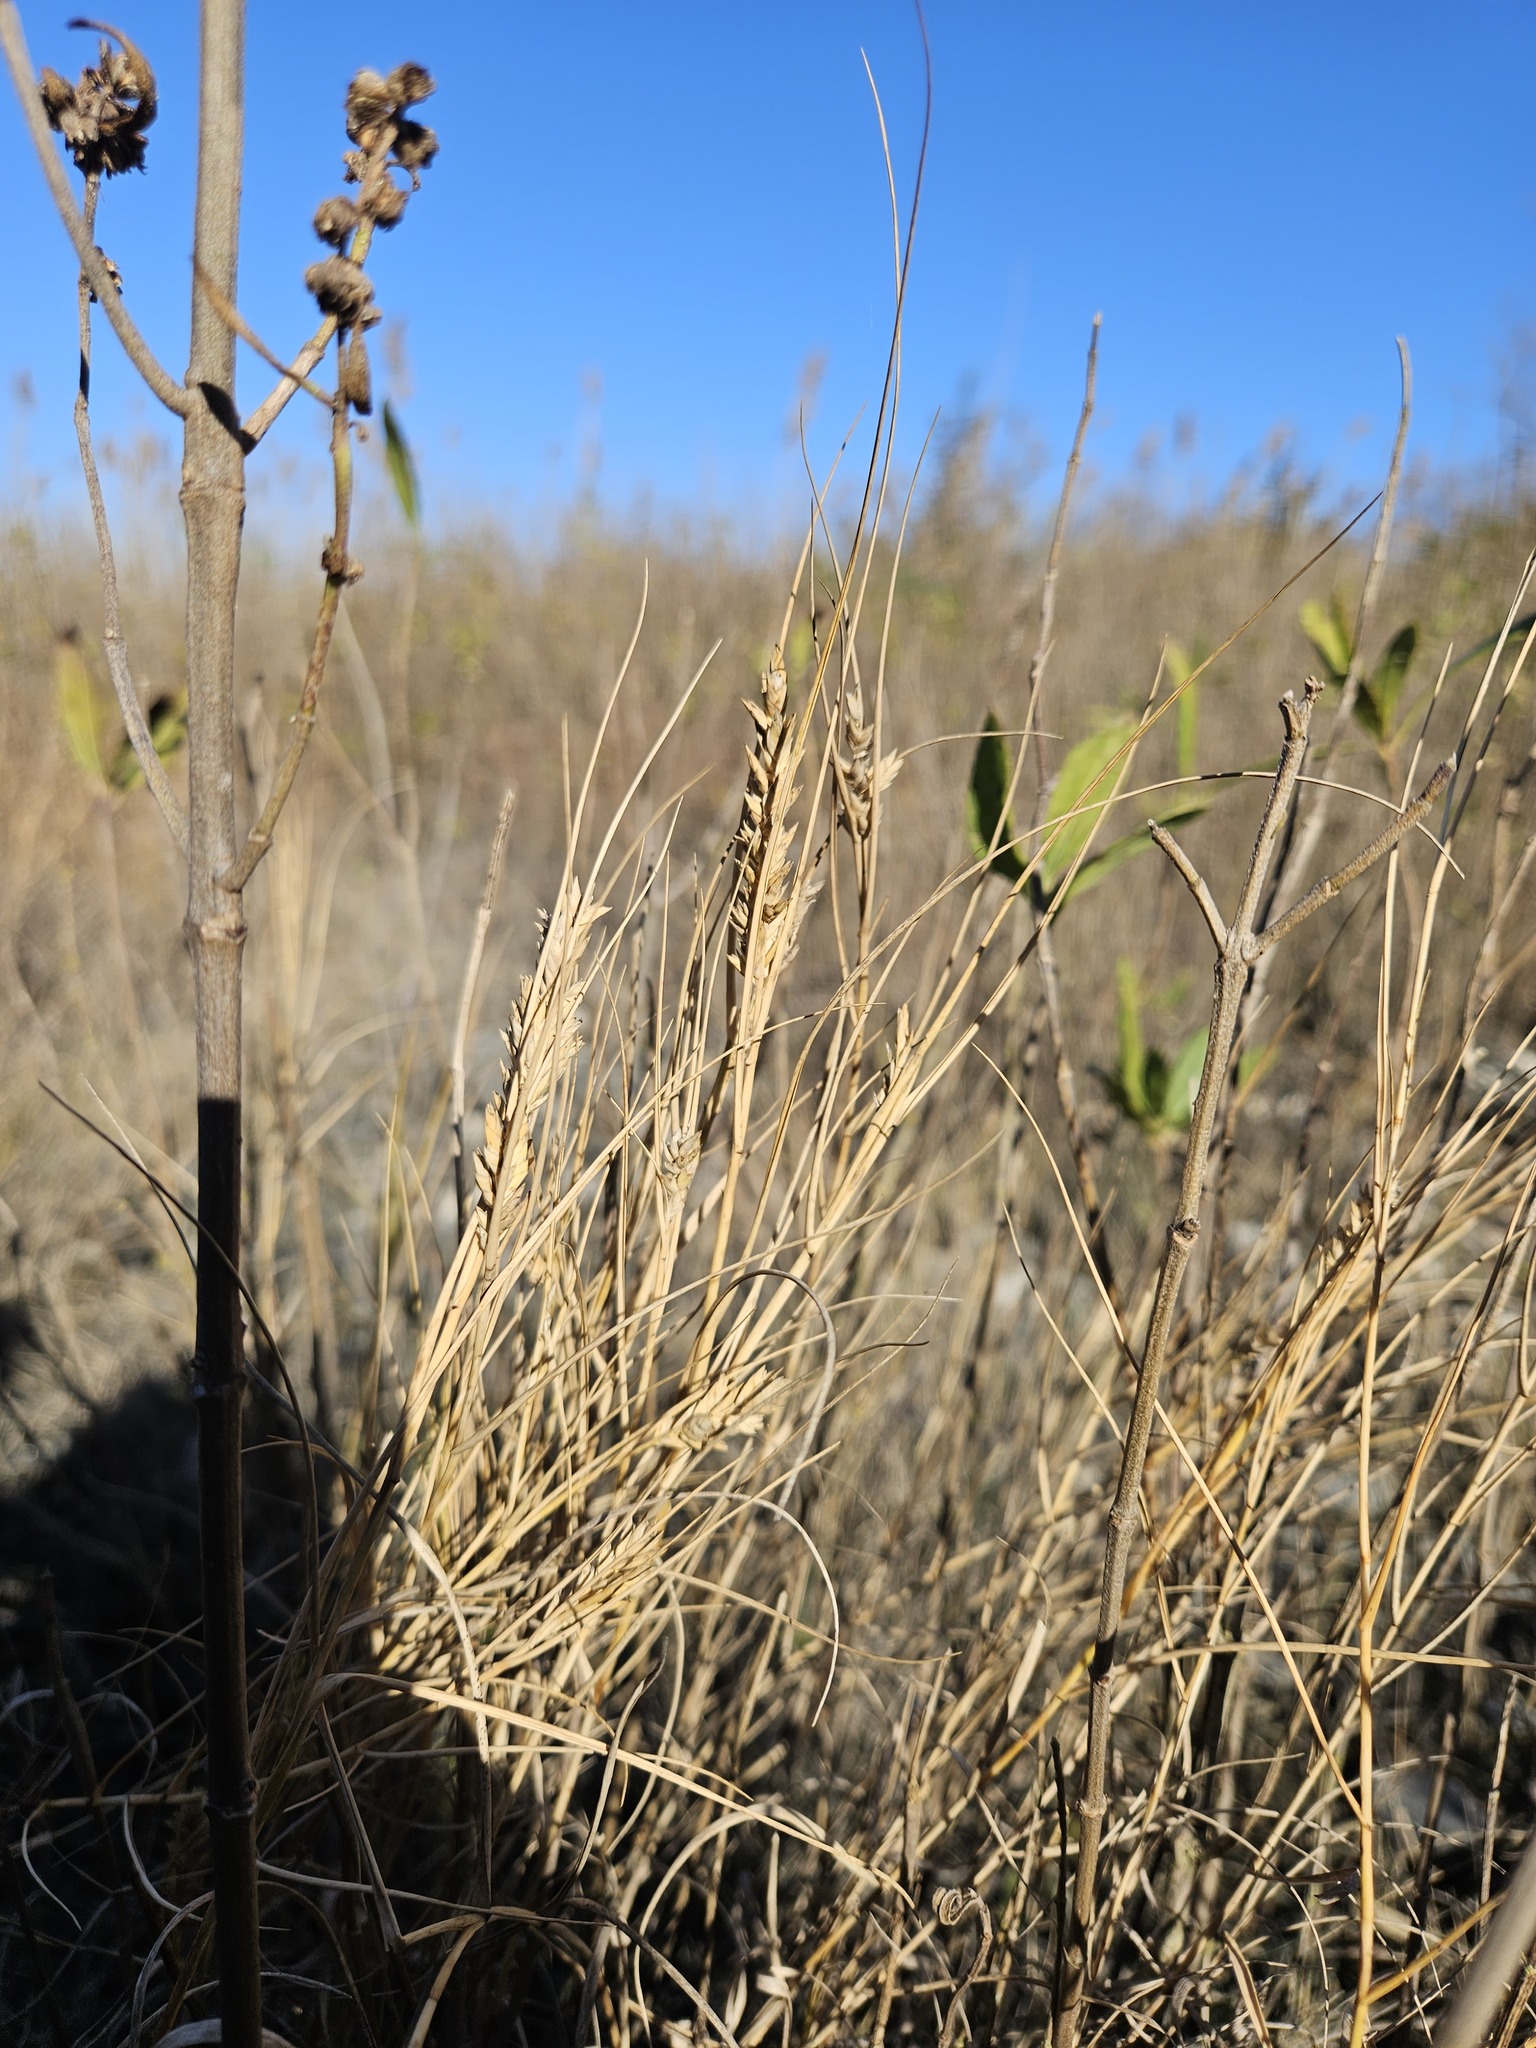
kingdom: Plantae
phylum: Tracheophyta
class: Liliopsida
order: Poales
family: Poaceae
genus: Distichlis
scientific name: Distichlis spicata
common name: Saltgrass
